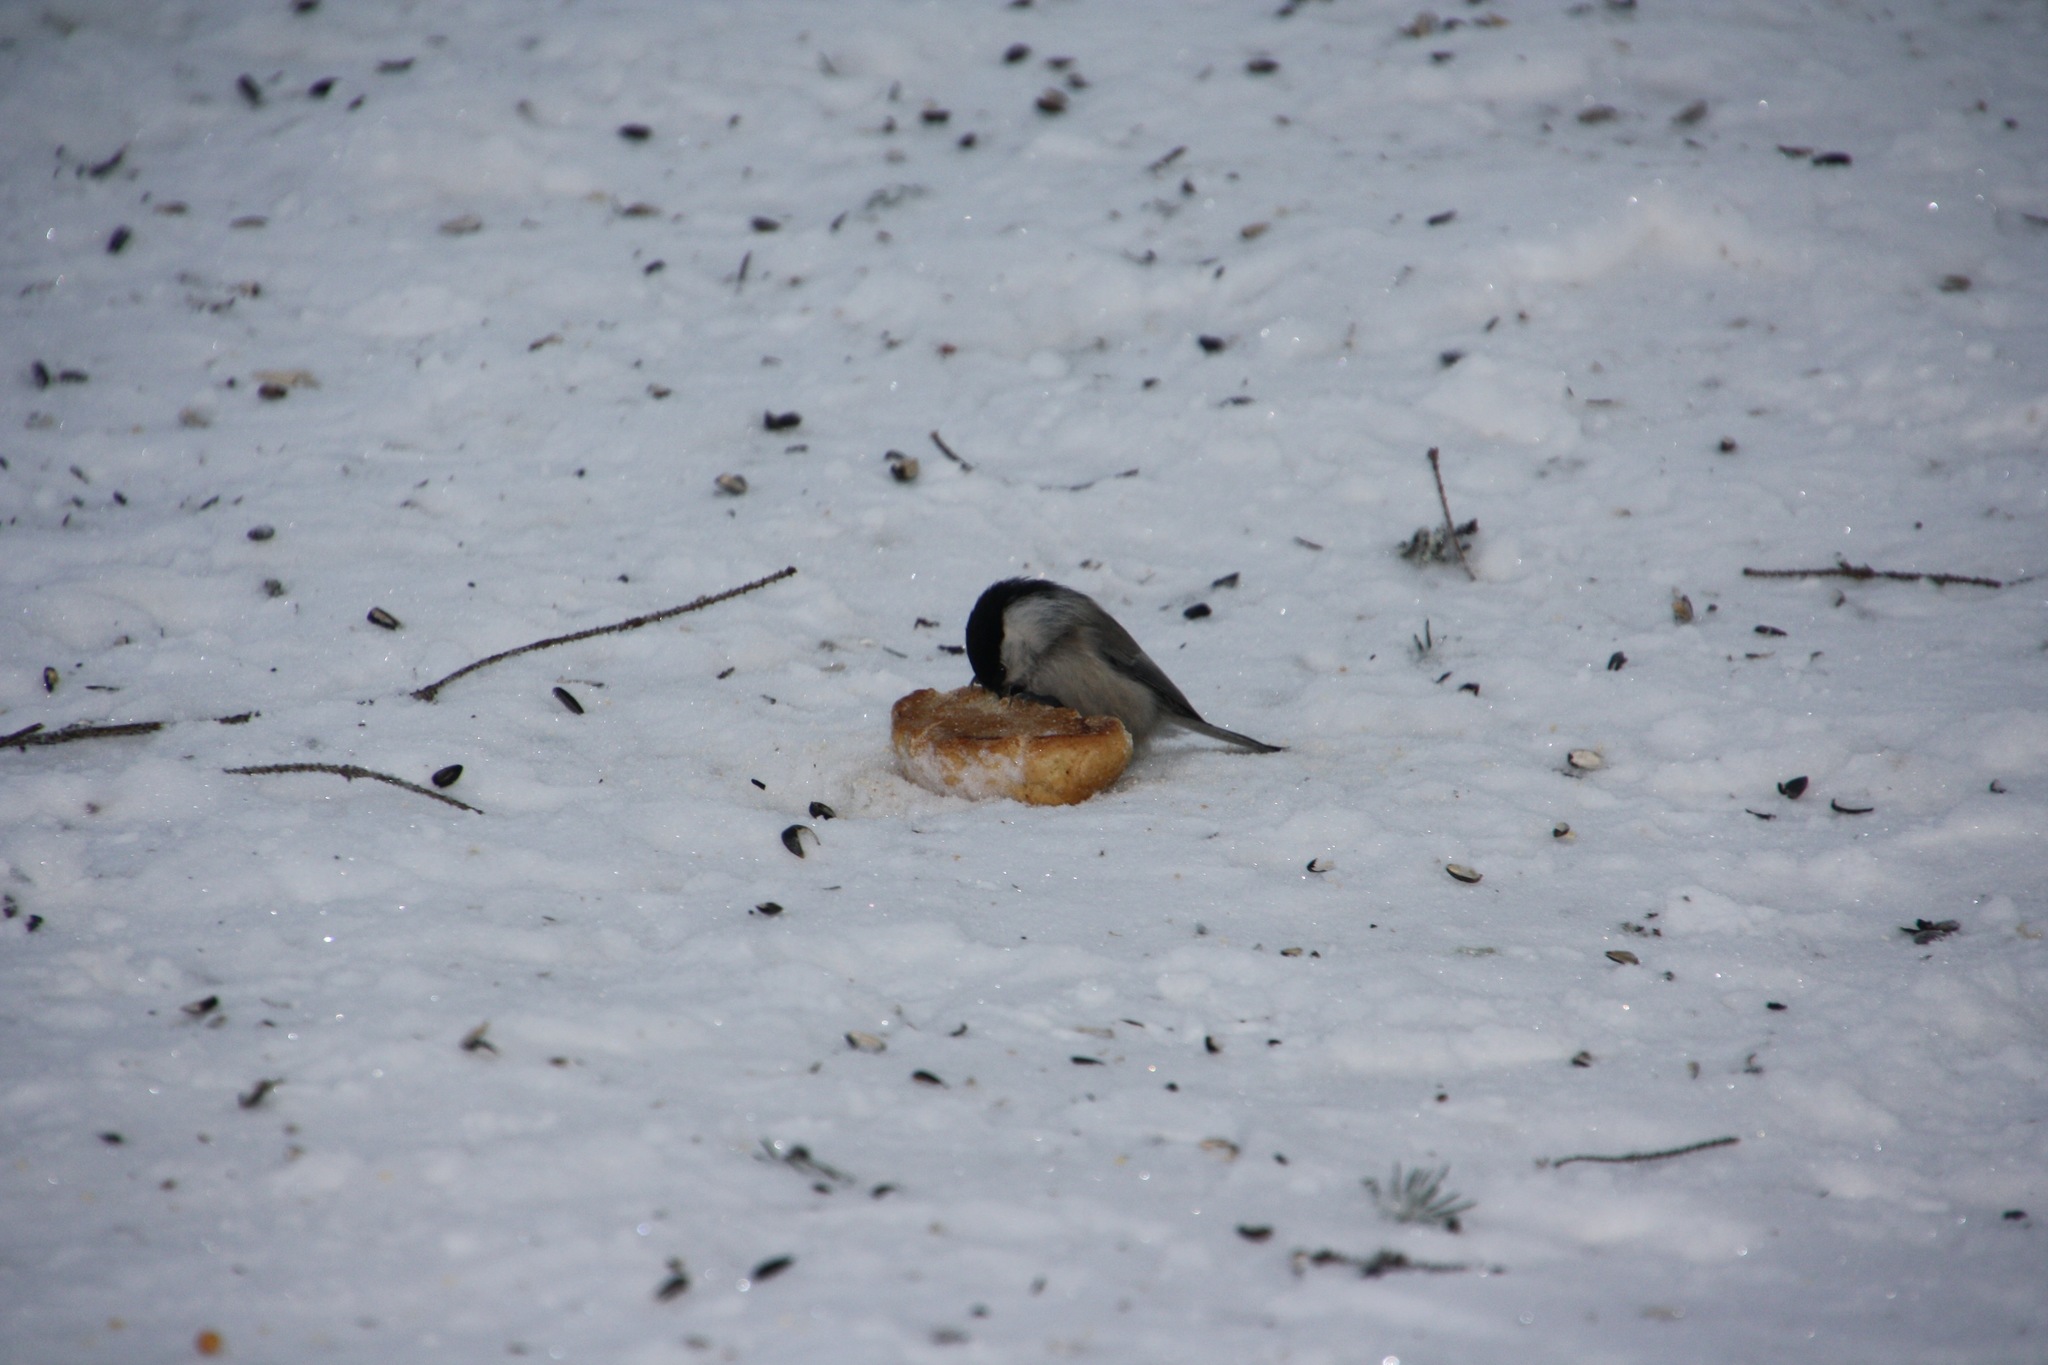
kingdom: Animalia
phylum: Chordata
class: Aves
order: Passeriformes
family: Paridae
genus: Poecile
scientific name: Poecile montanus
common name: Willow tit
